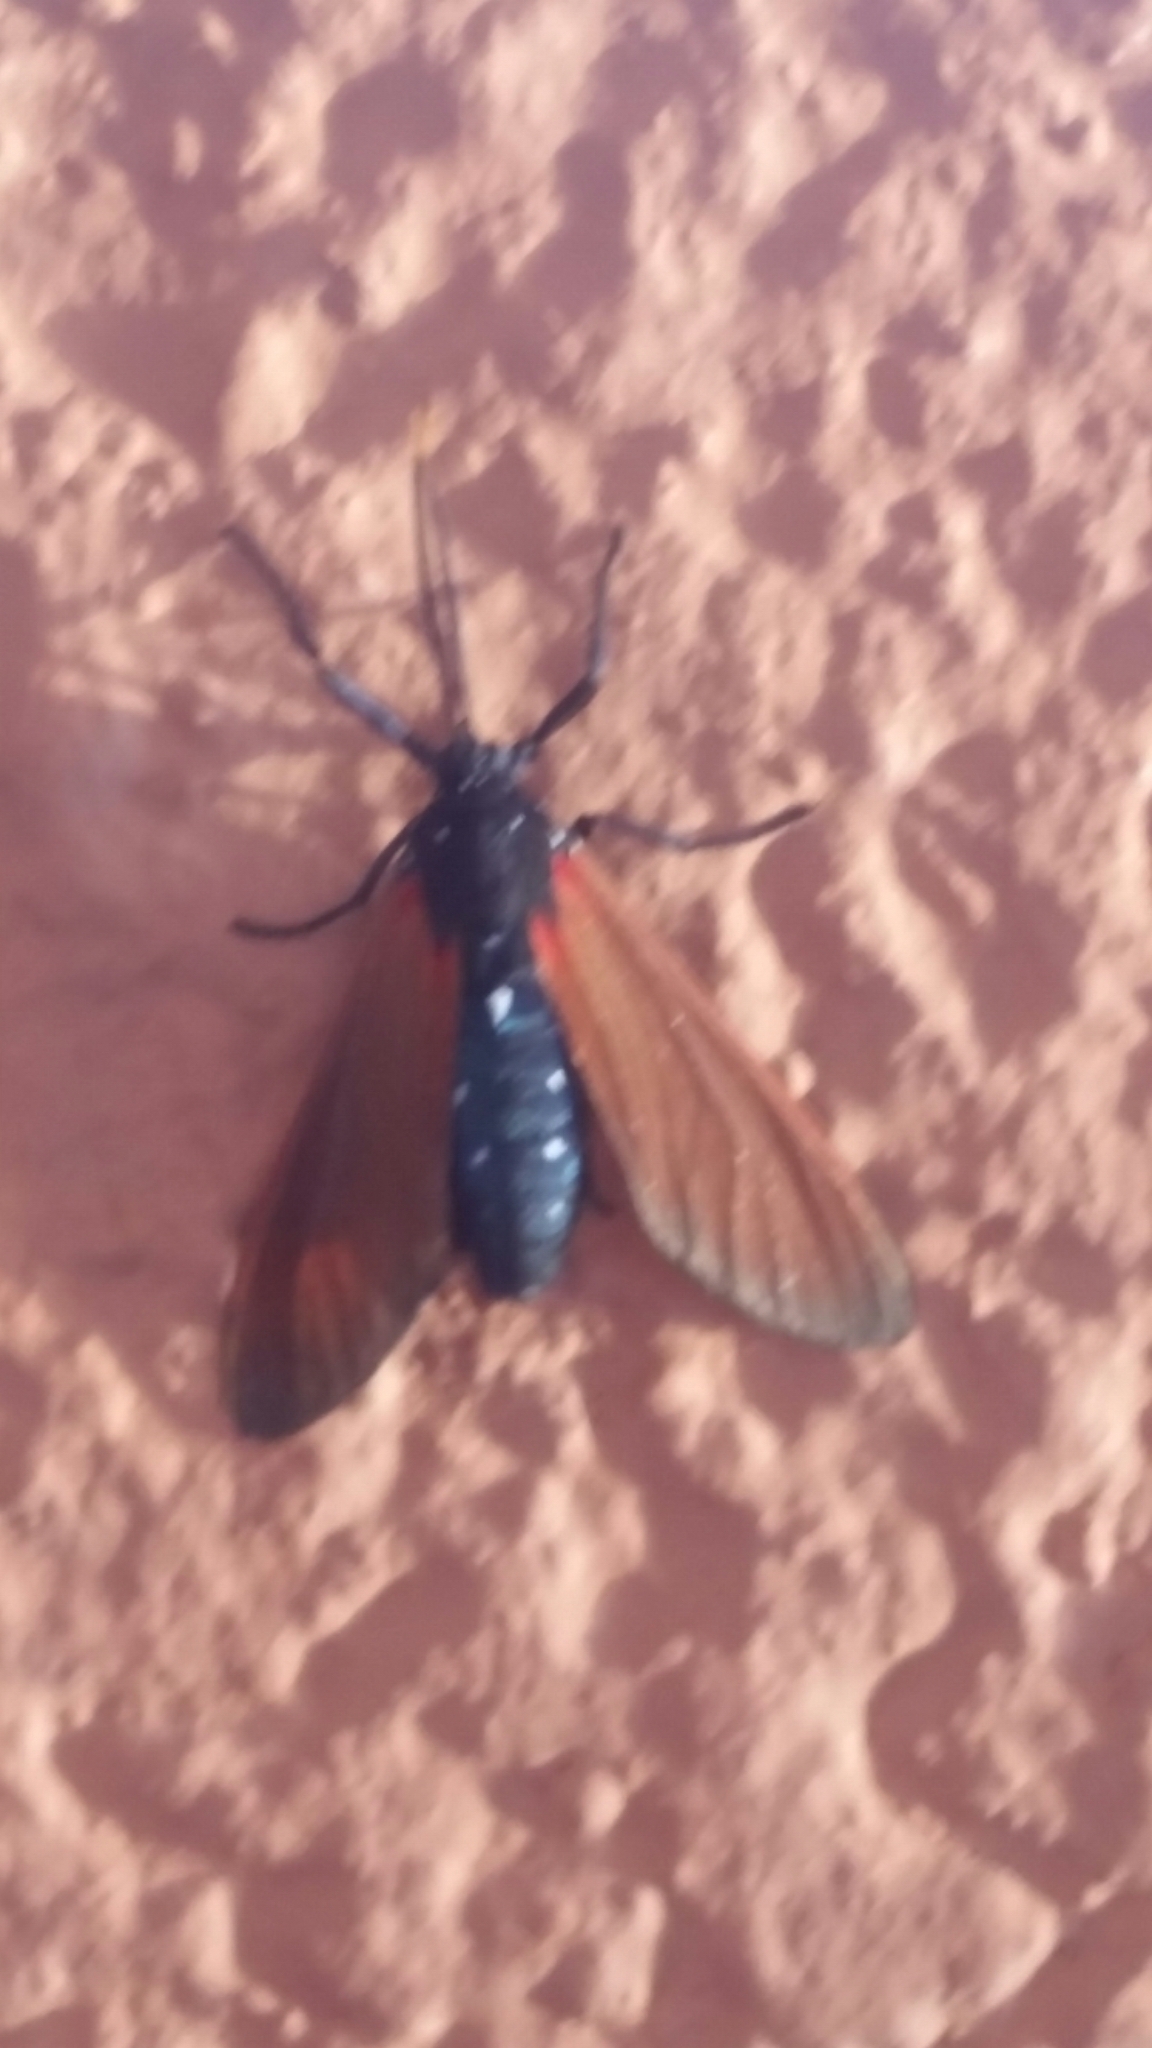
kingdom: Animalia
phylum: Arthropoda
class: Insecta
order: Lepidoptera
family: Erebidae
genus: Empyreuma
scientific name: Empyreuma pugione
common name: Spotted oleander caterpillar moth
